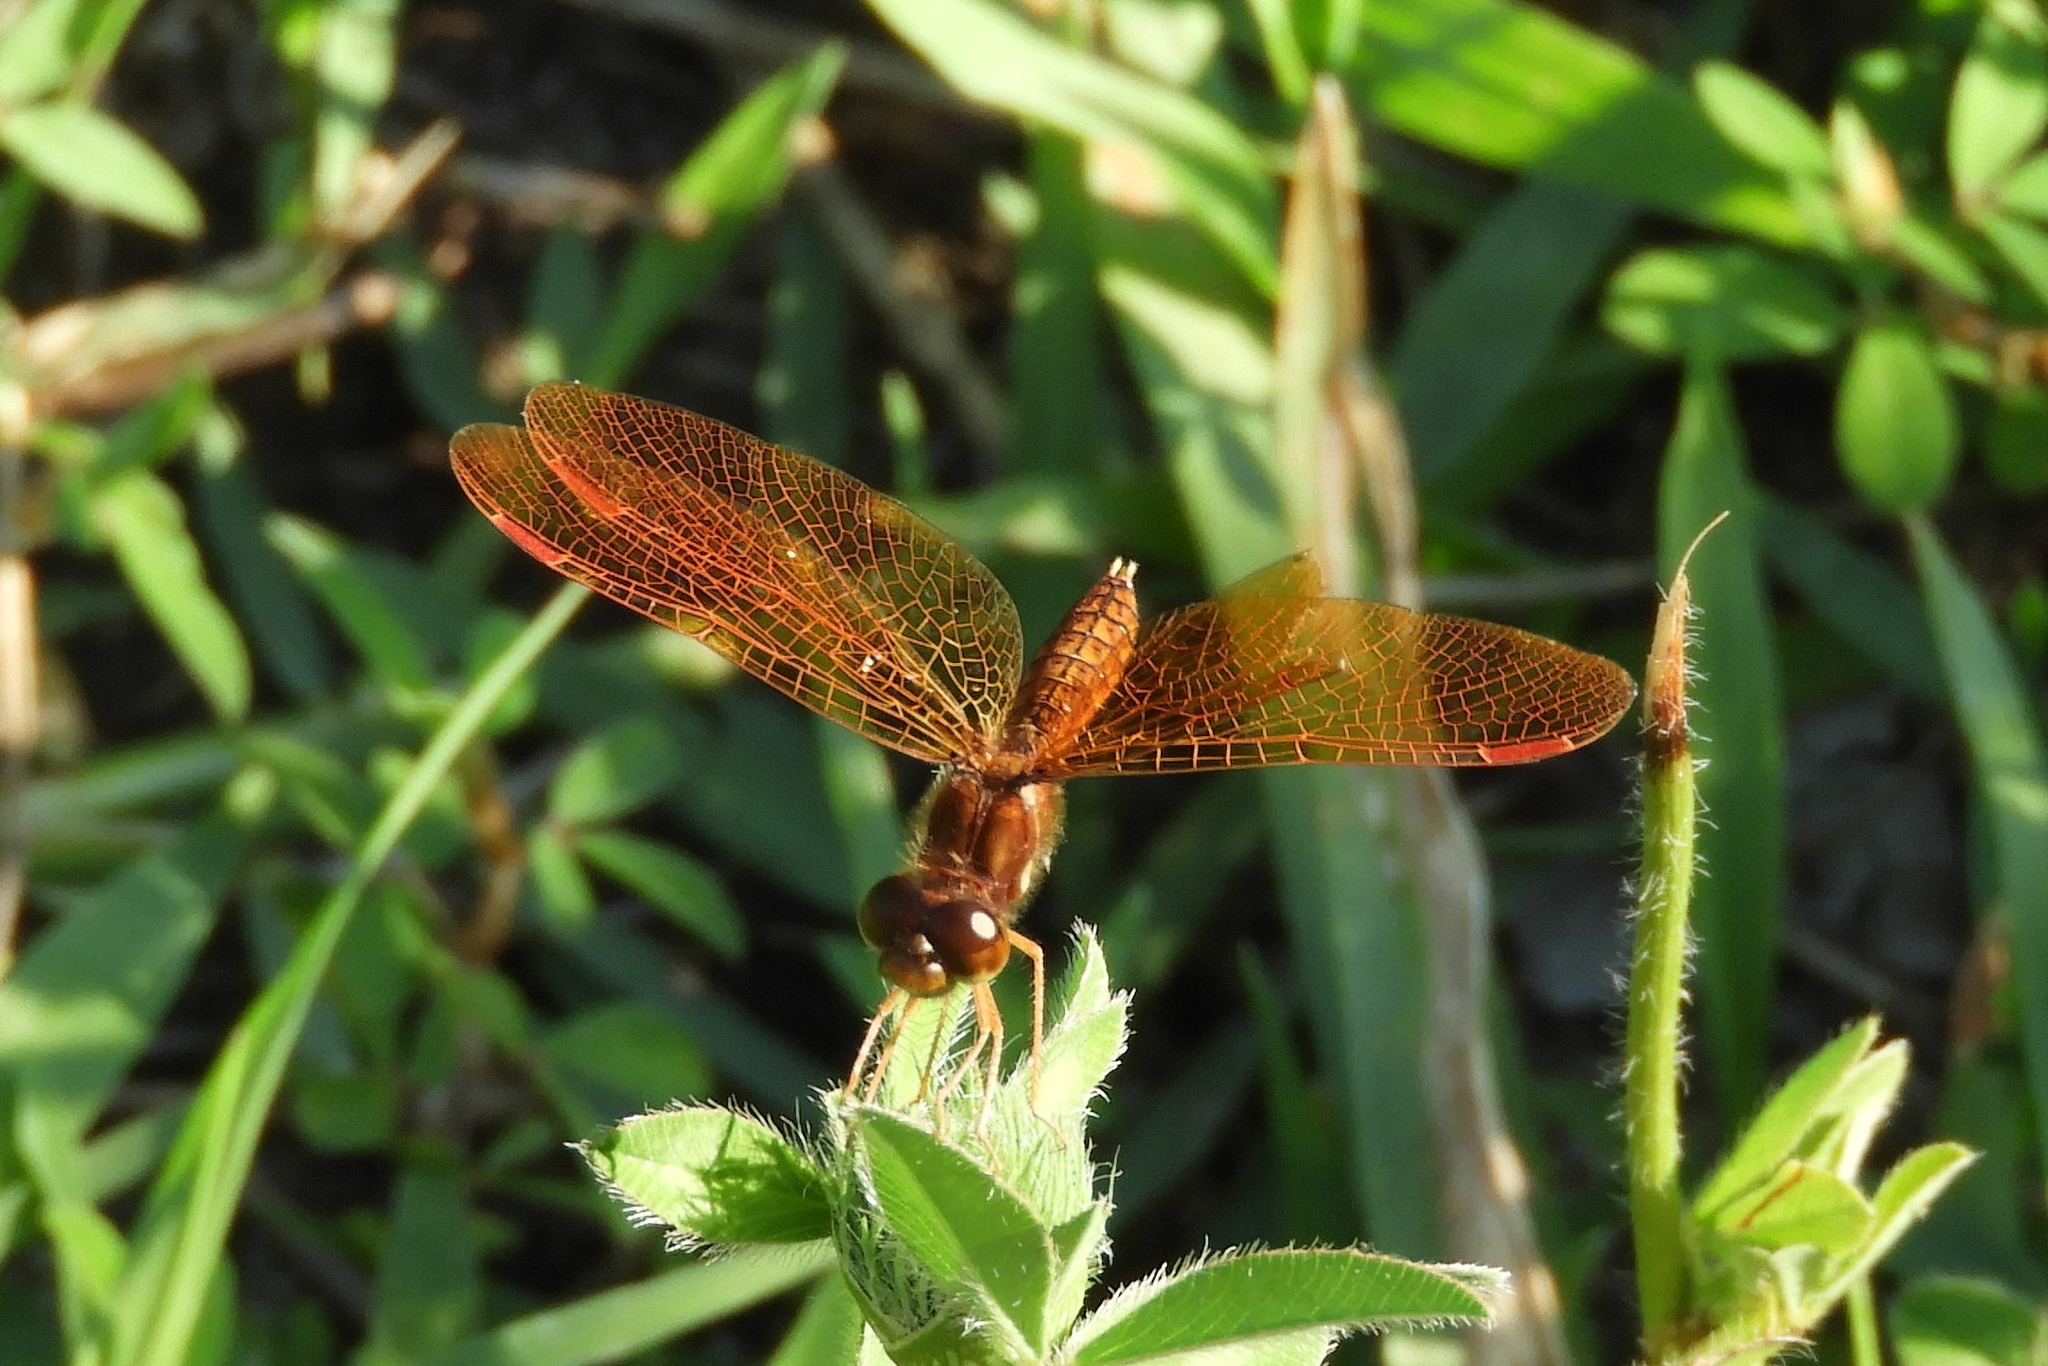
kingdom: Animalia
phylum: Arthropoda
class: Insecta
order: Odonata
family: Libellulidae
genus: Perithemis
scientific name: Perithemis tenera
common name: Eastern amberwing
